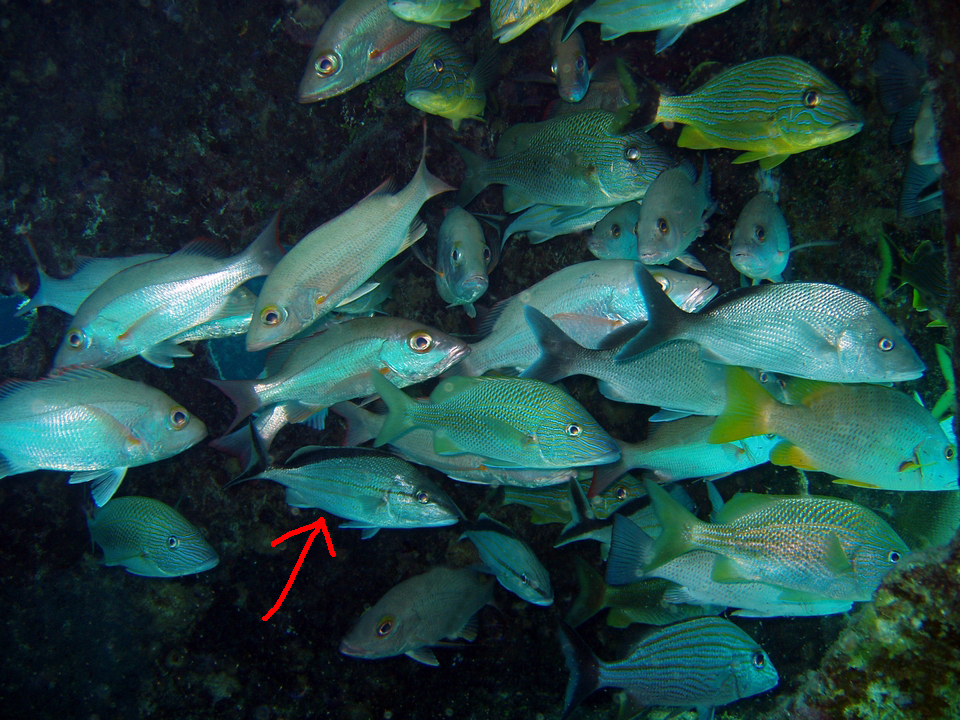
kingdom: Animalia
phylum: Chordata
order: Perciformes
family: Haemulidae
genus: Haemulon
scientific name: Haemulon melanurum
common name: Cottonwick
